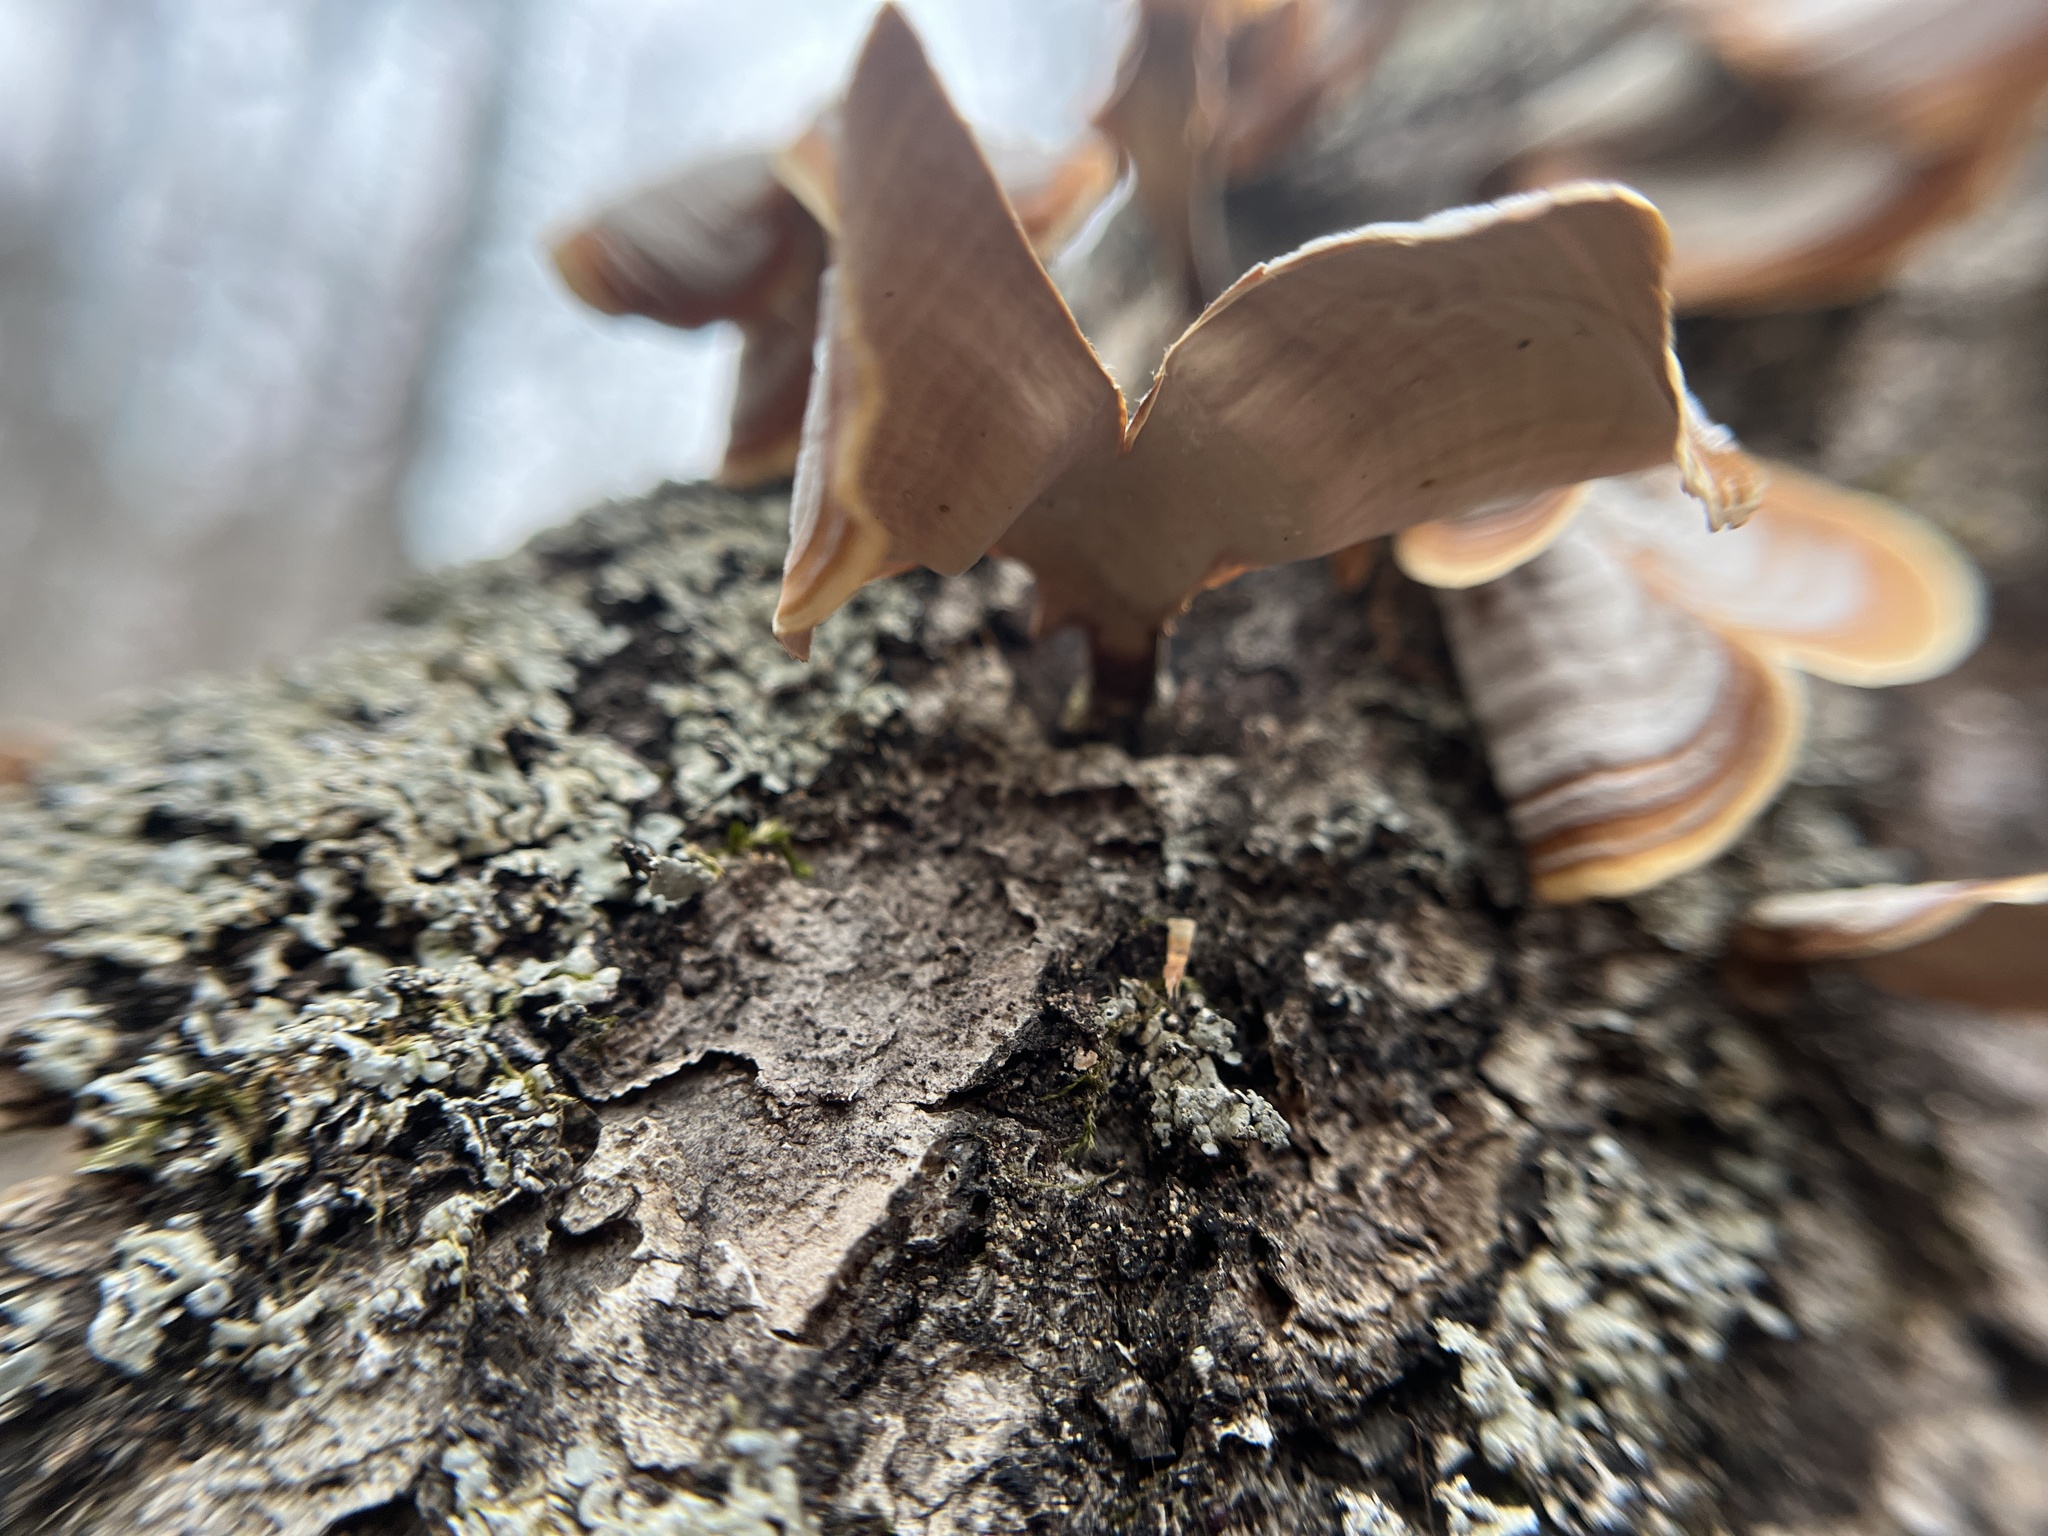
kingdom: Fungi
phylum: Basidiomycota
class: Agaricomycetes
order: Russulales
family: Stereaceae
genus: Stereum
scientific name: Stereum lobatum
